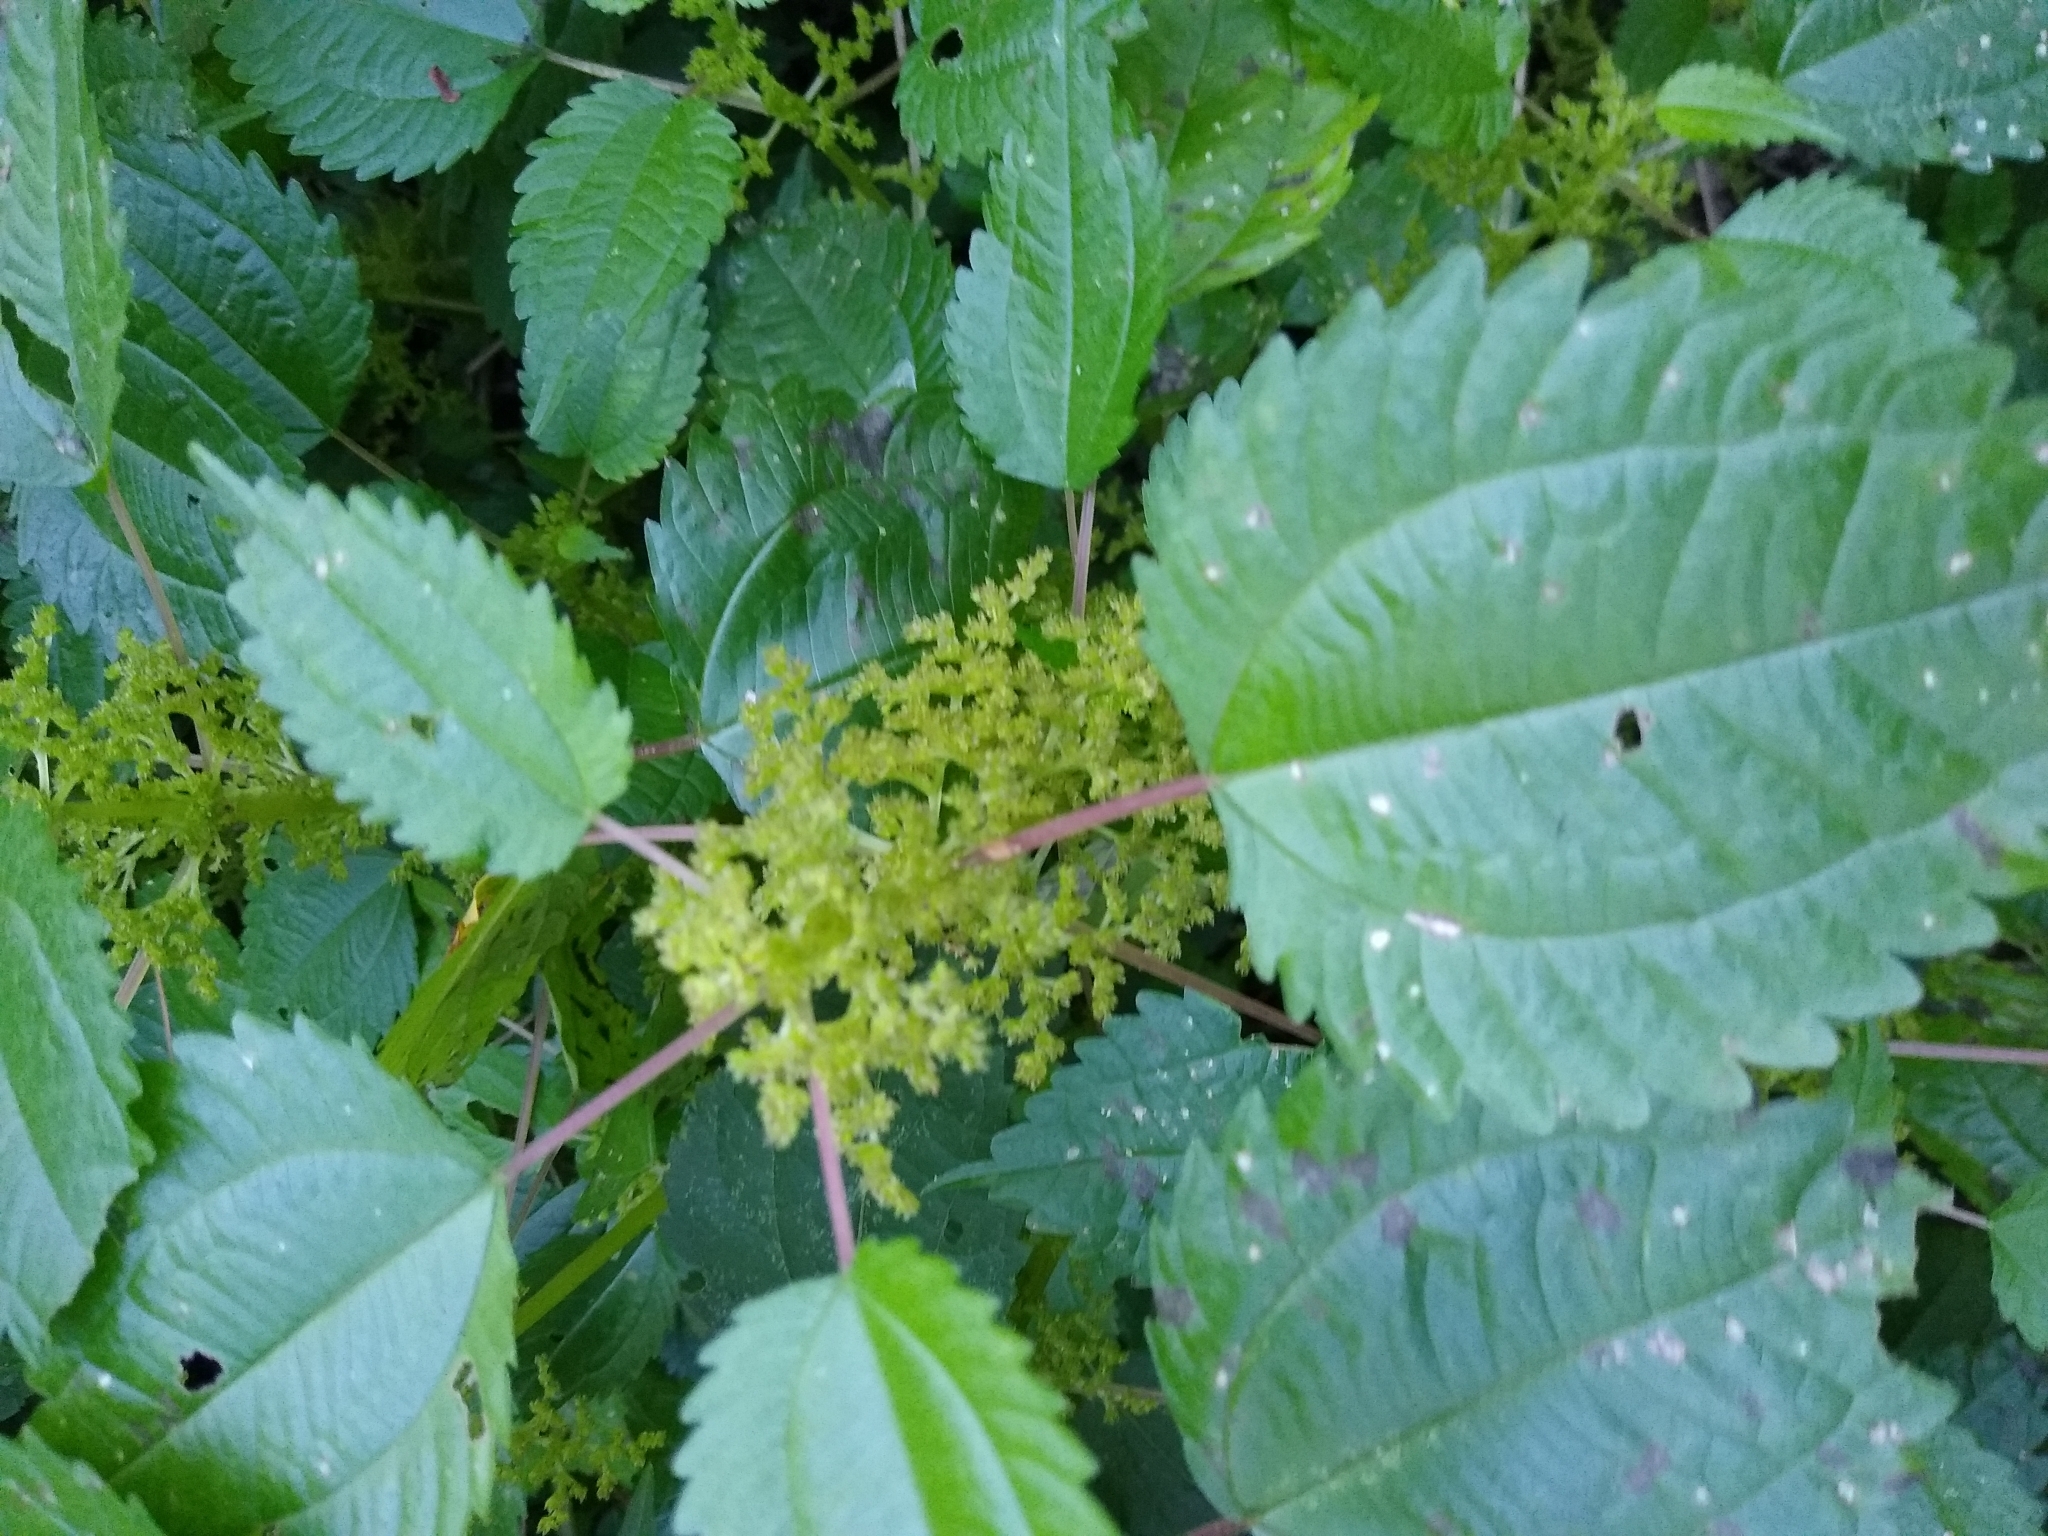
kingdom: Plantae
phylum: Tracheophyta
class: Magnoliopsida
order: Rosales
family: Urticaceae
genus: Pilea
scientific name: Pilea pumila
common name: Clearweed
